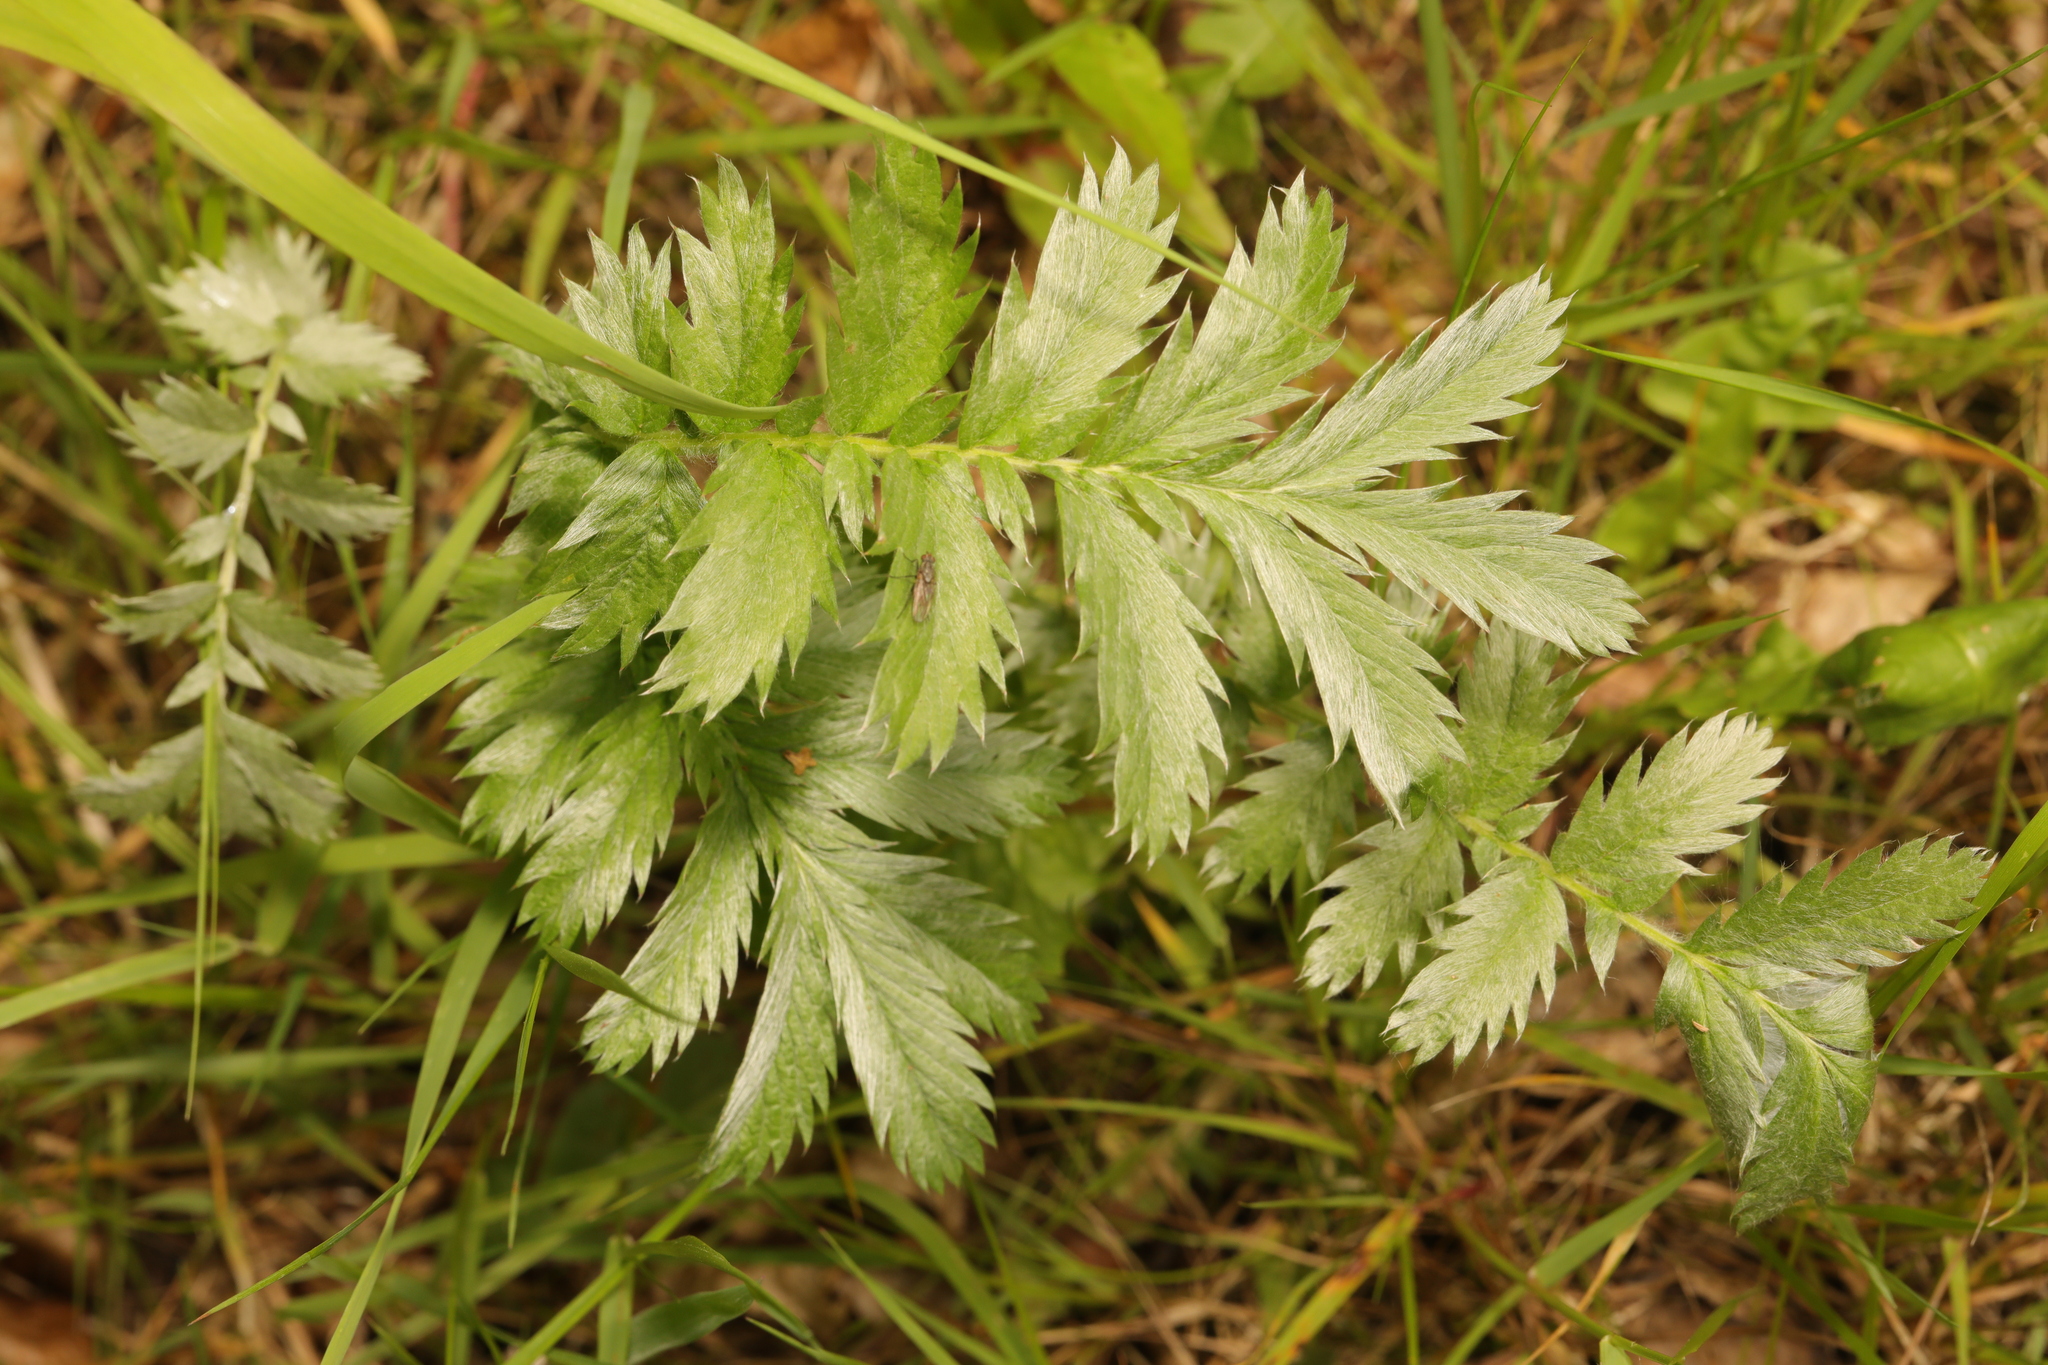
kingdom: Plantae
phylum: Tracheophyta
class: Magnoliopsida
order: Rosales
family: Rosaceae
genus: Argentina
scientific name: Argentina anserina
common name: Common silverweed
